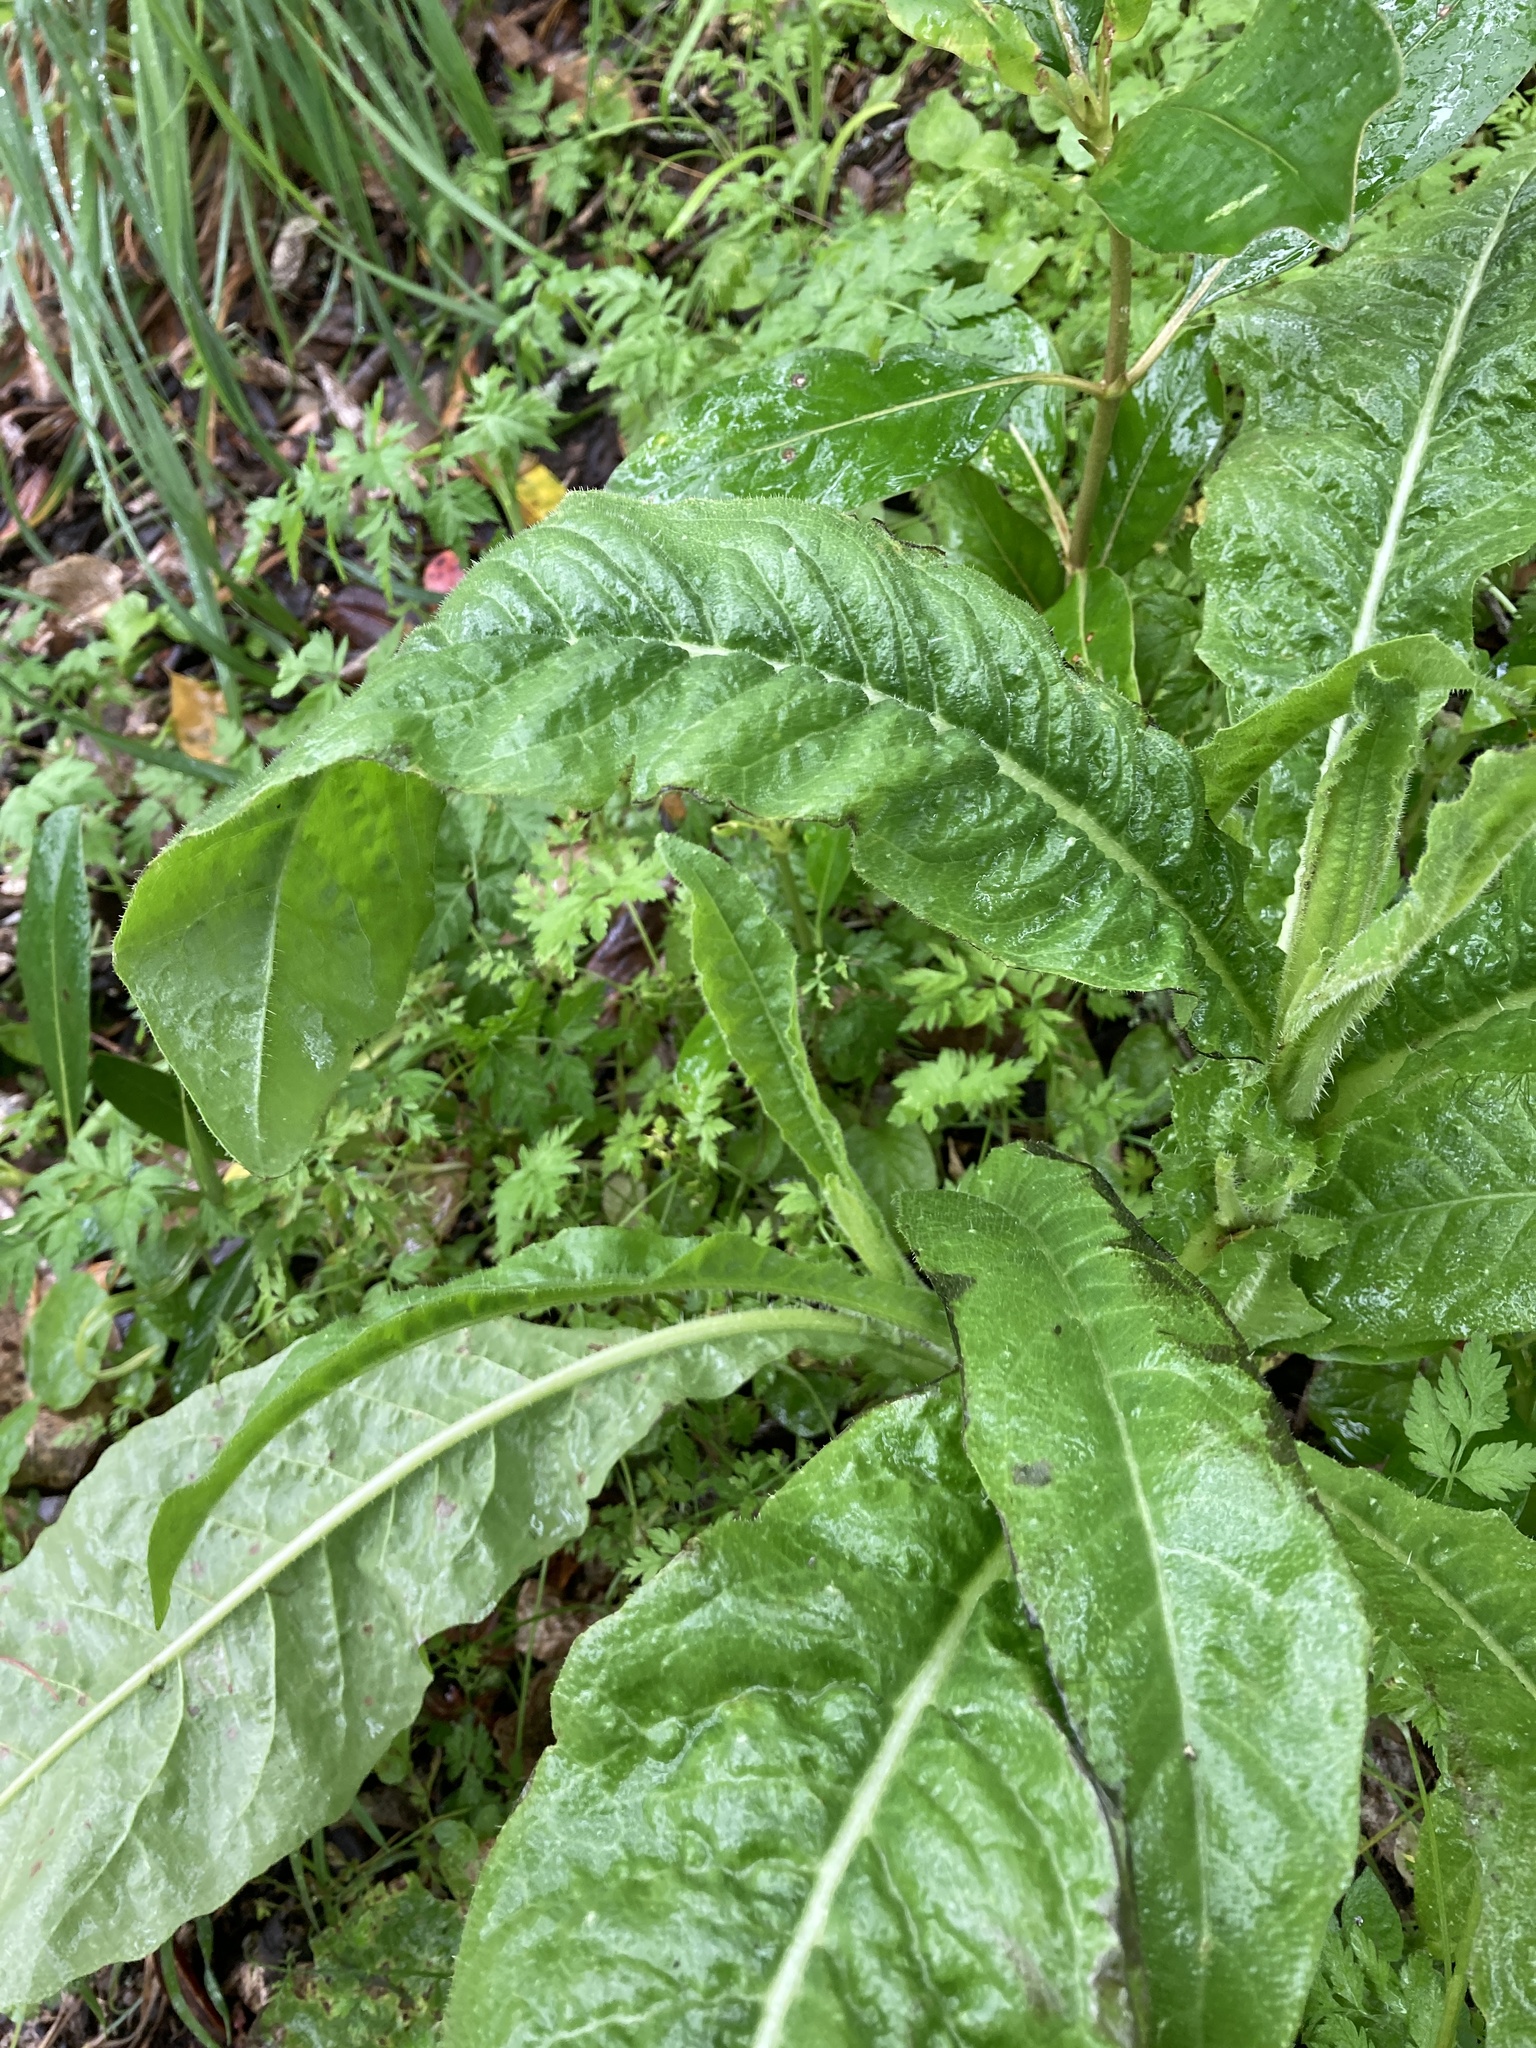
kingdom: Plantae
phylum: Tracheophyta
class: Magnoliopsida
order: Asterales
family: Asteraceae
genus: Helminthotheca
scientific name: Helminthotheca echioides
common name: Ox-tongue
